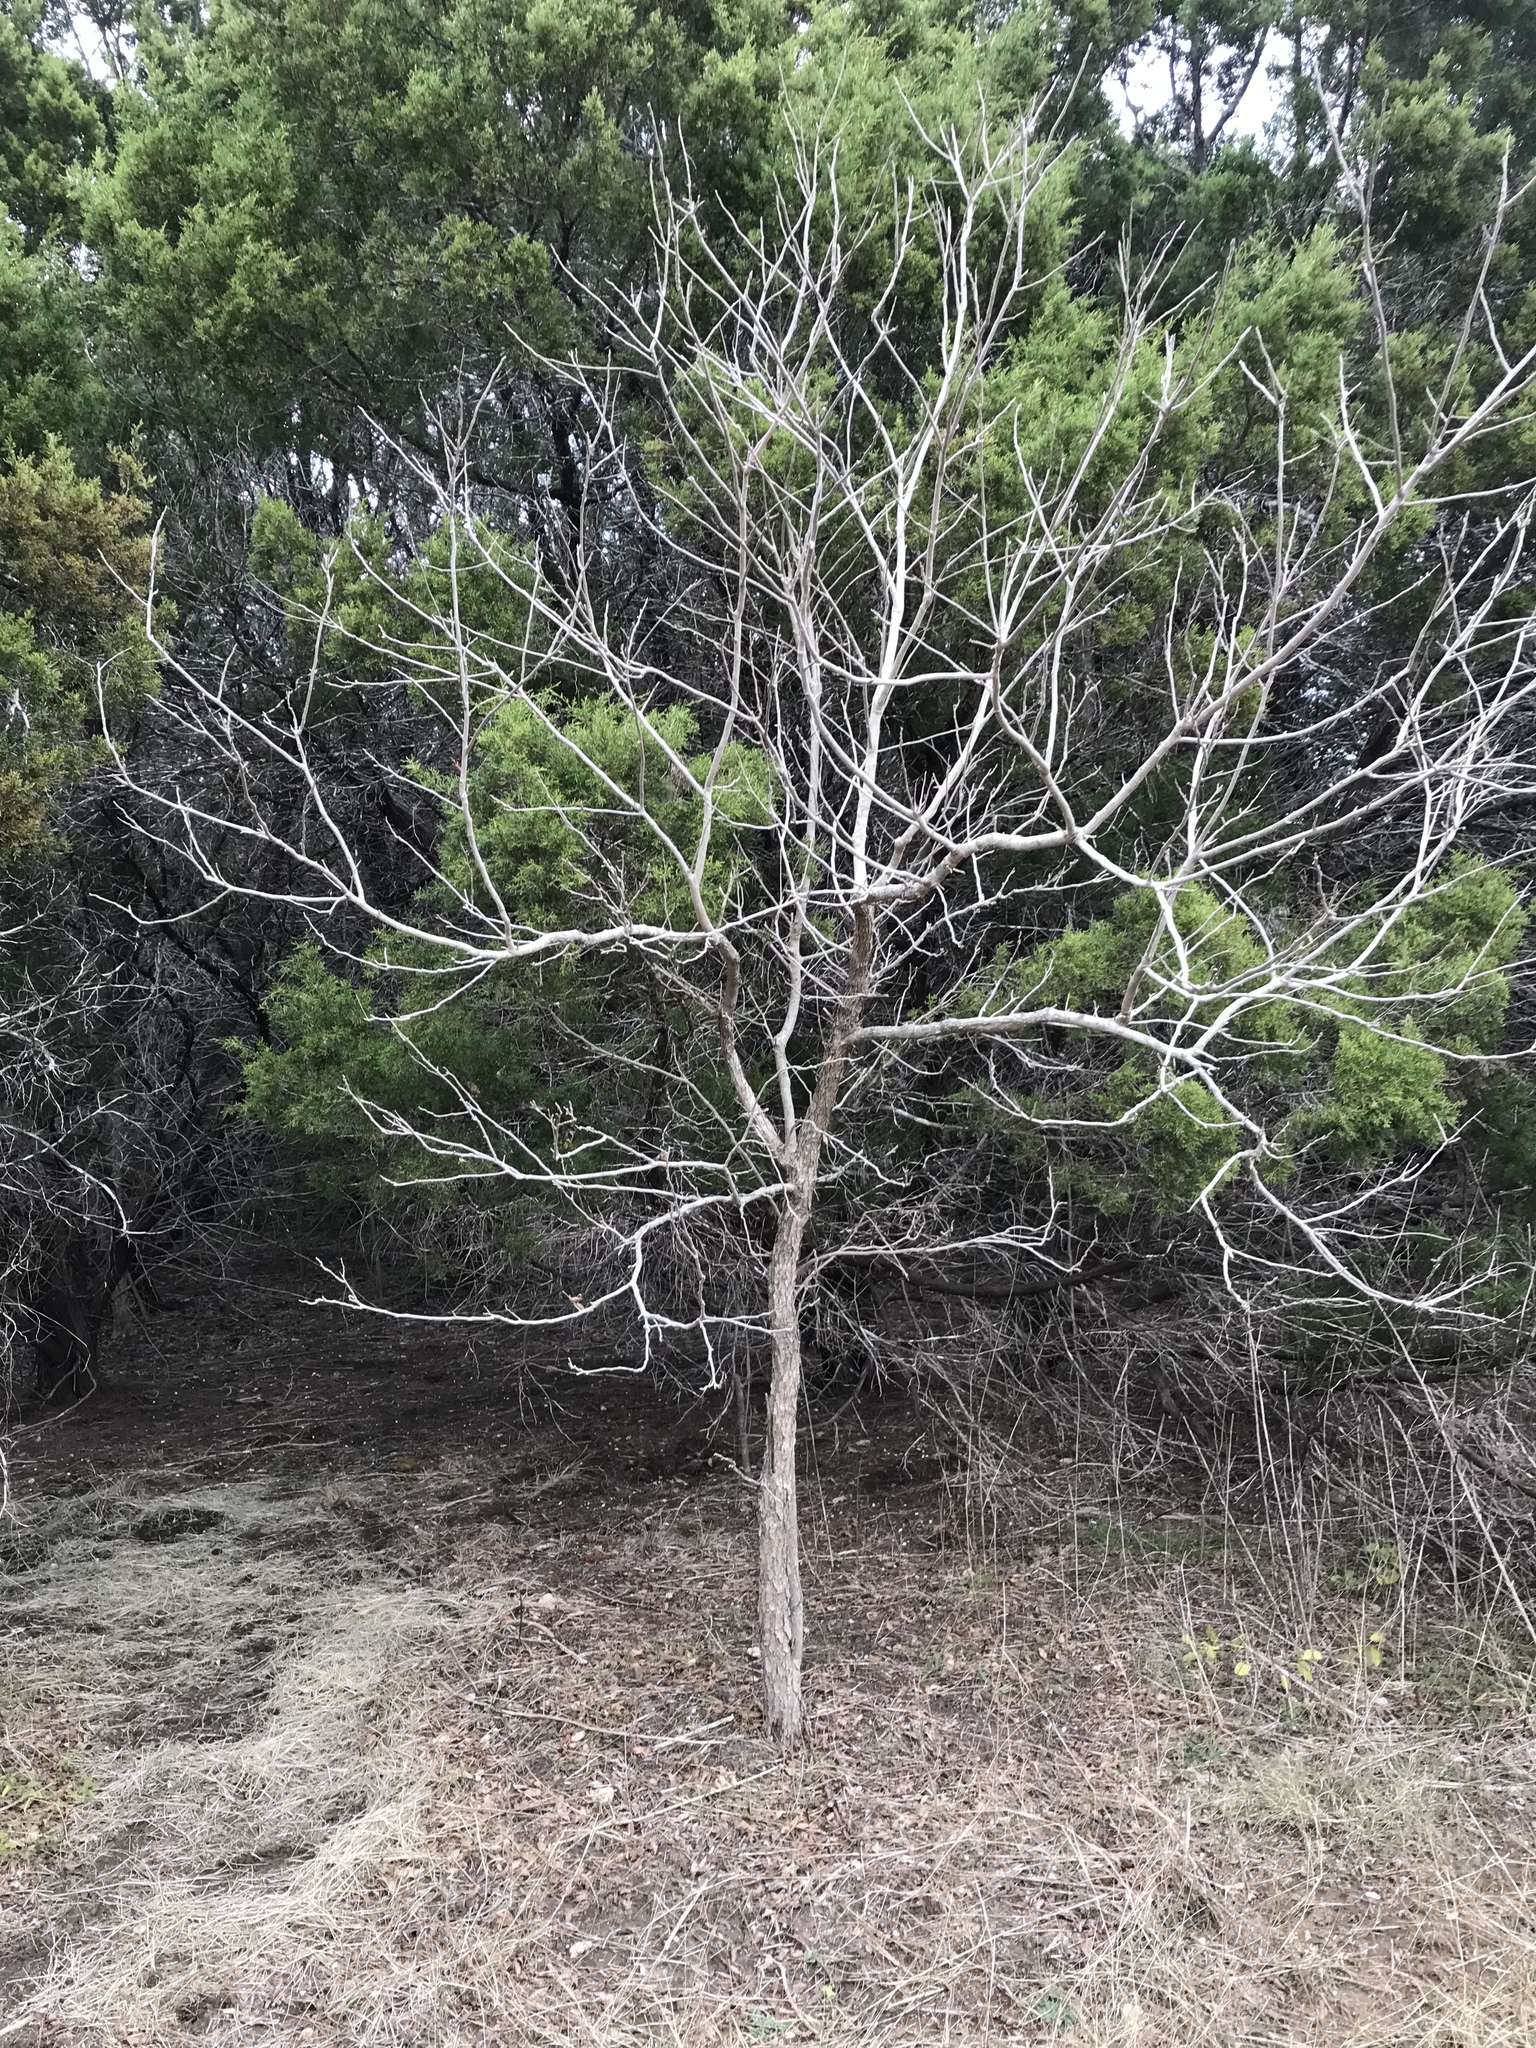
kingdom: Plantae
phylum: Tracheophyta
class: Magnoliopsida
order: Sapindales
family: Sapindaceae
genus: Sapindus
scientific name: Sapindus drummondii
